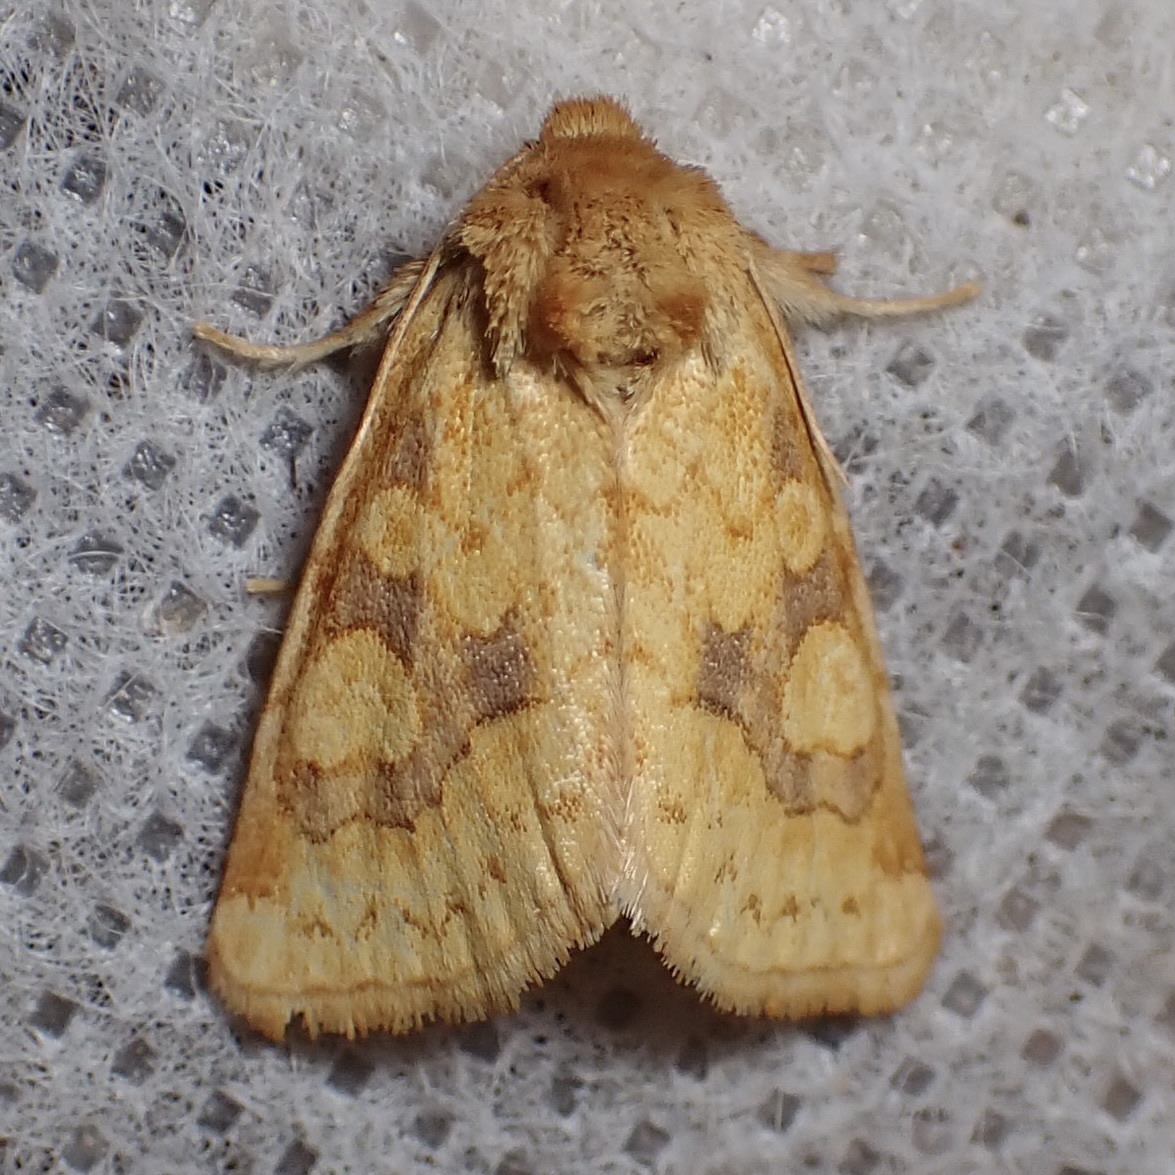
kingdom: Animalia
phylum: Arthropoda
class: Insecta
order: Lepidoptera
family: Noctuidae
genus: Nocloa
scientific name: Nocloa cordova
